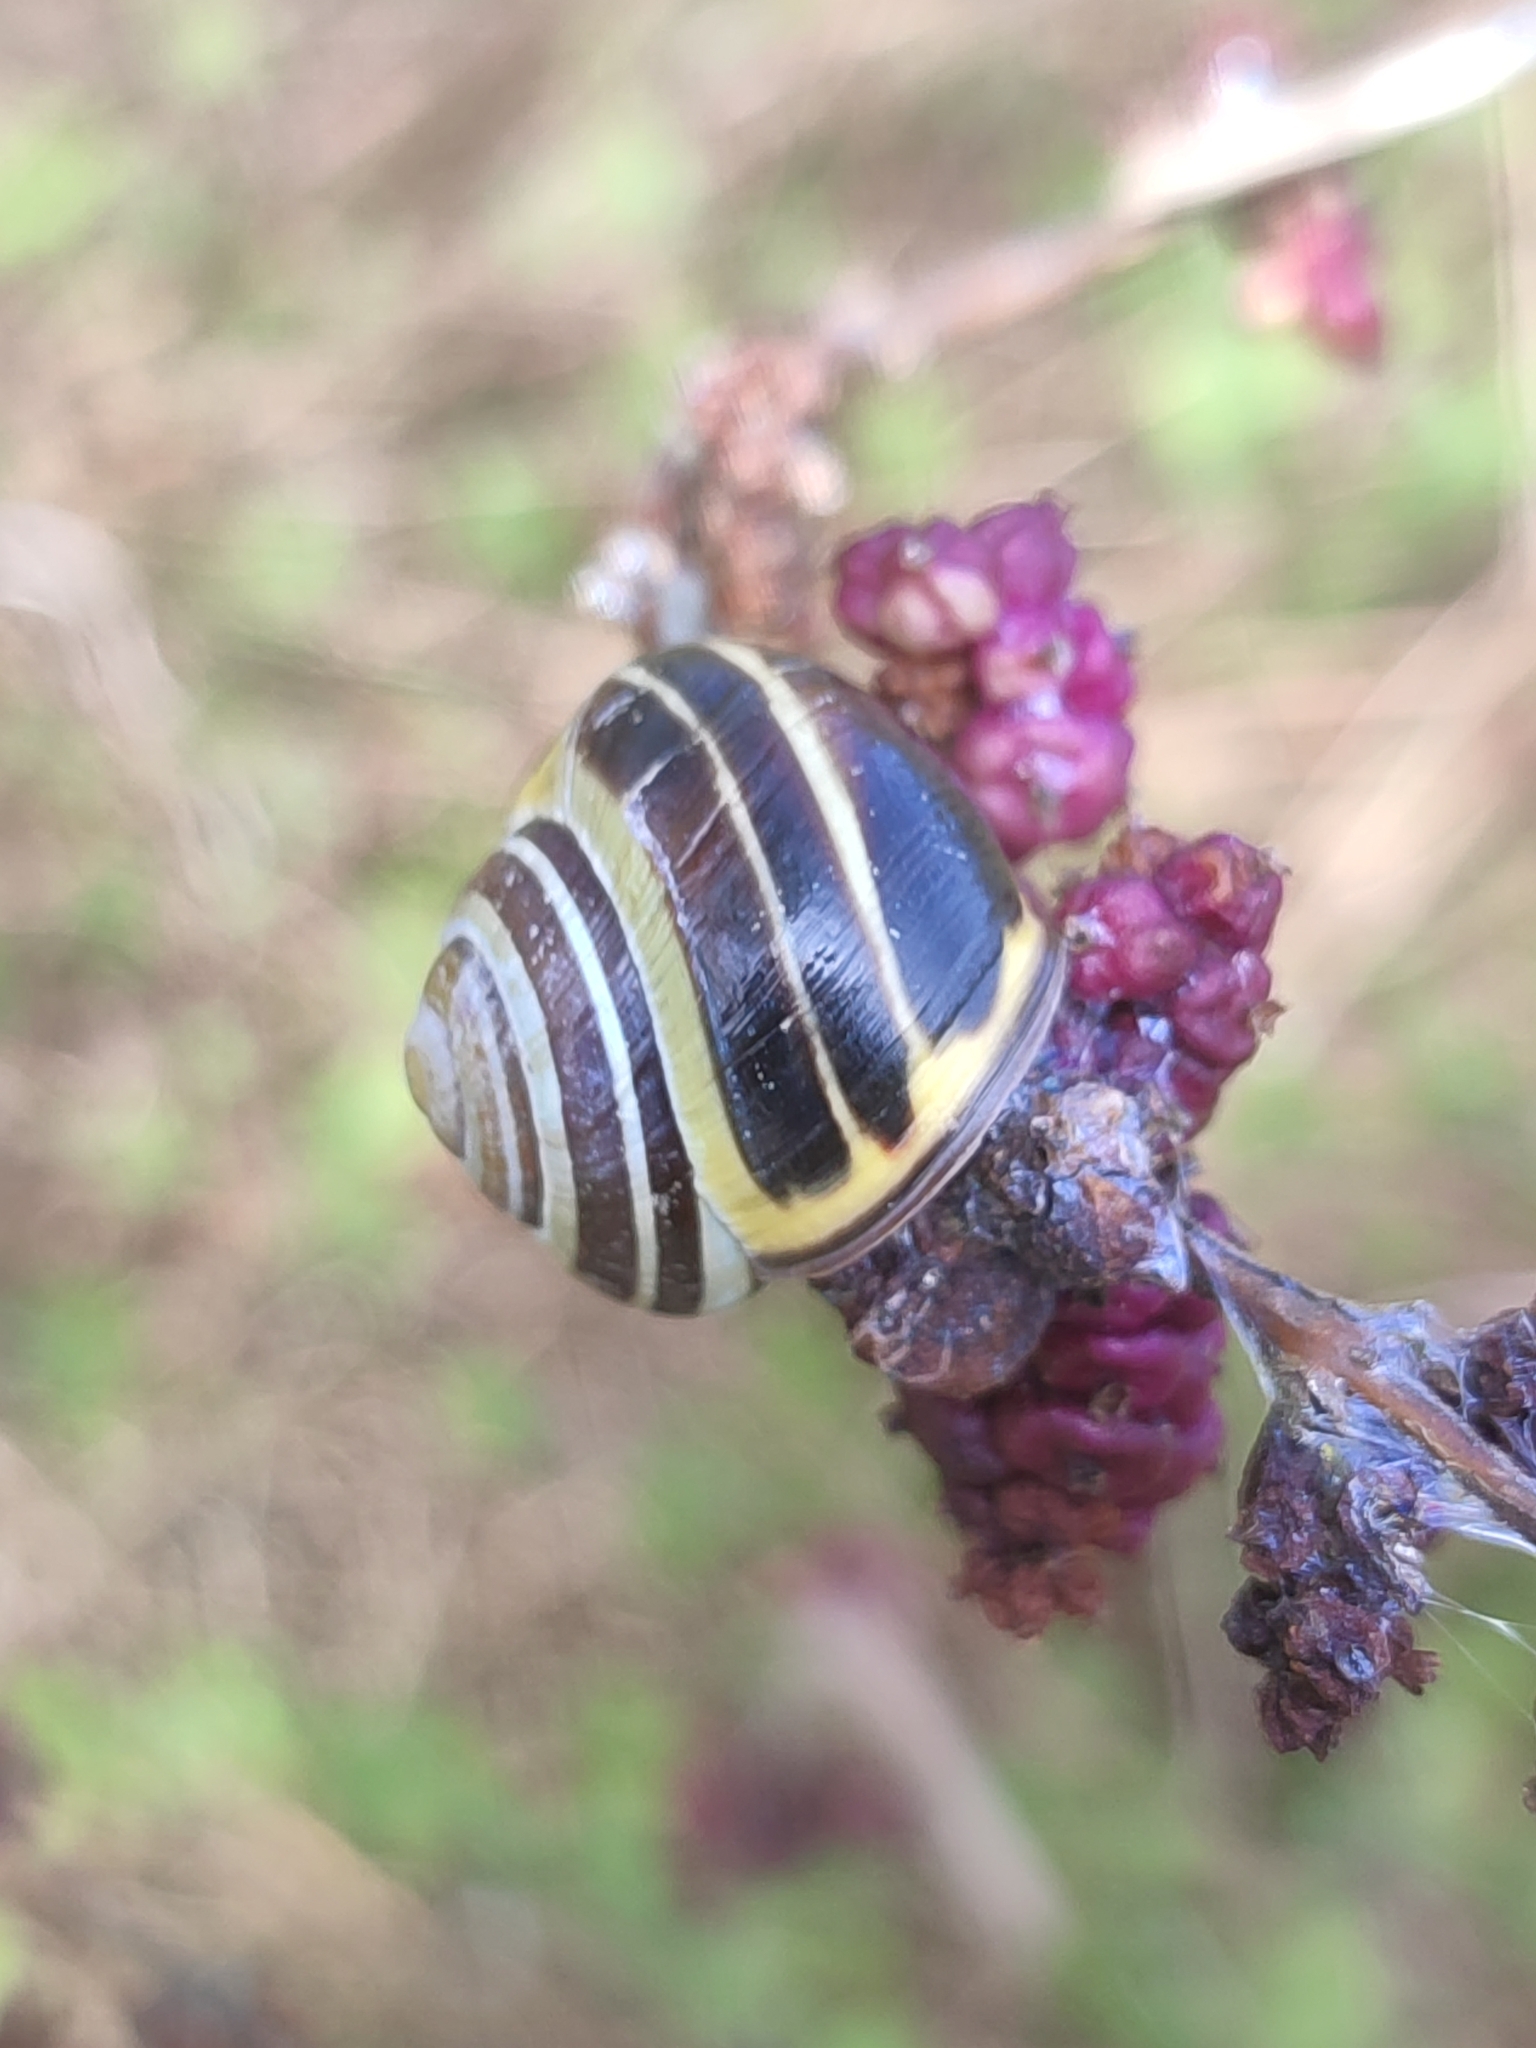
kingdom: Animalia
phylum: Mollusca
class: Gastropoda
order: Stylommatophora
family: Helicidae
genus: Cepaea
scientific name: Cepaea nemoralis
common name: Grovesnail
